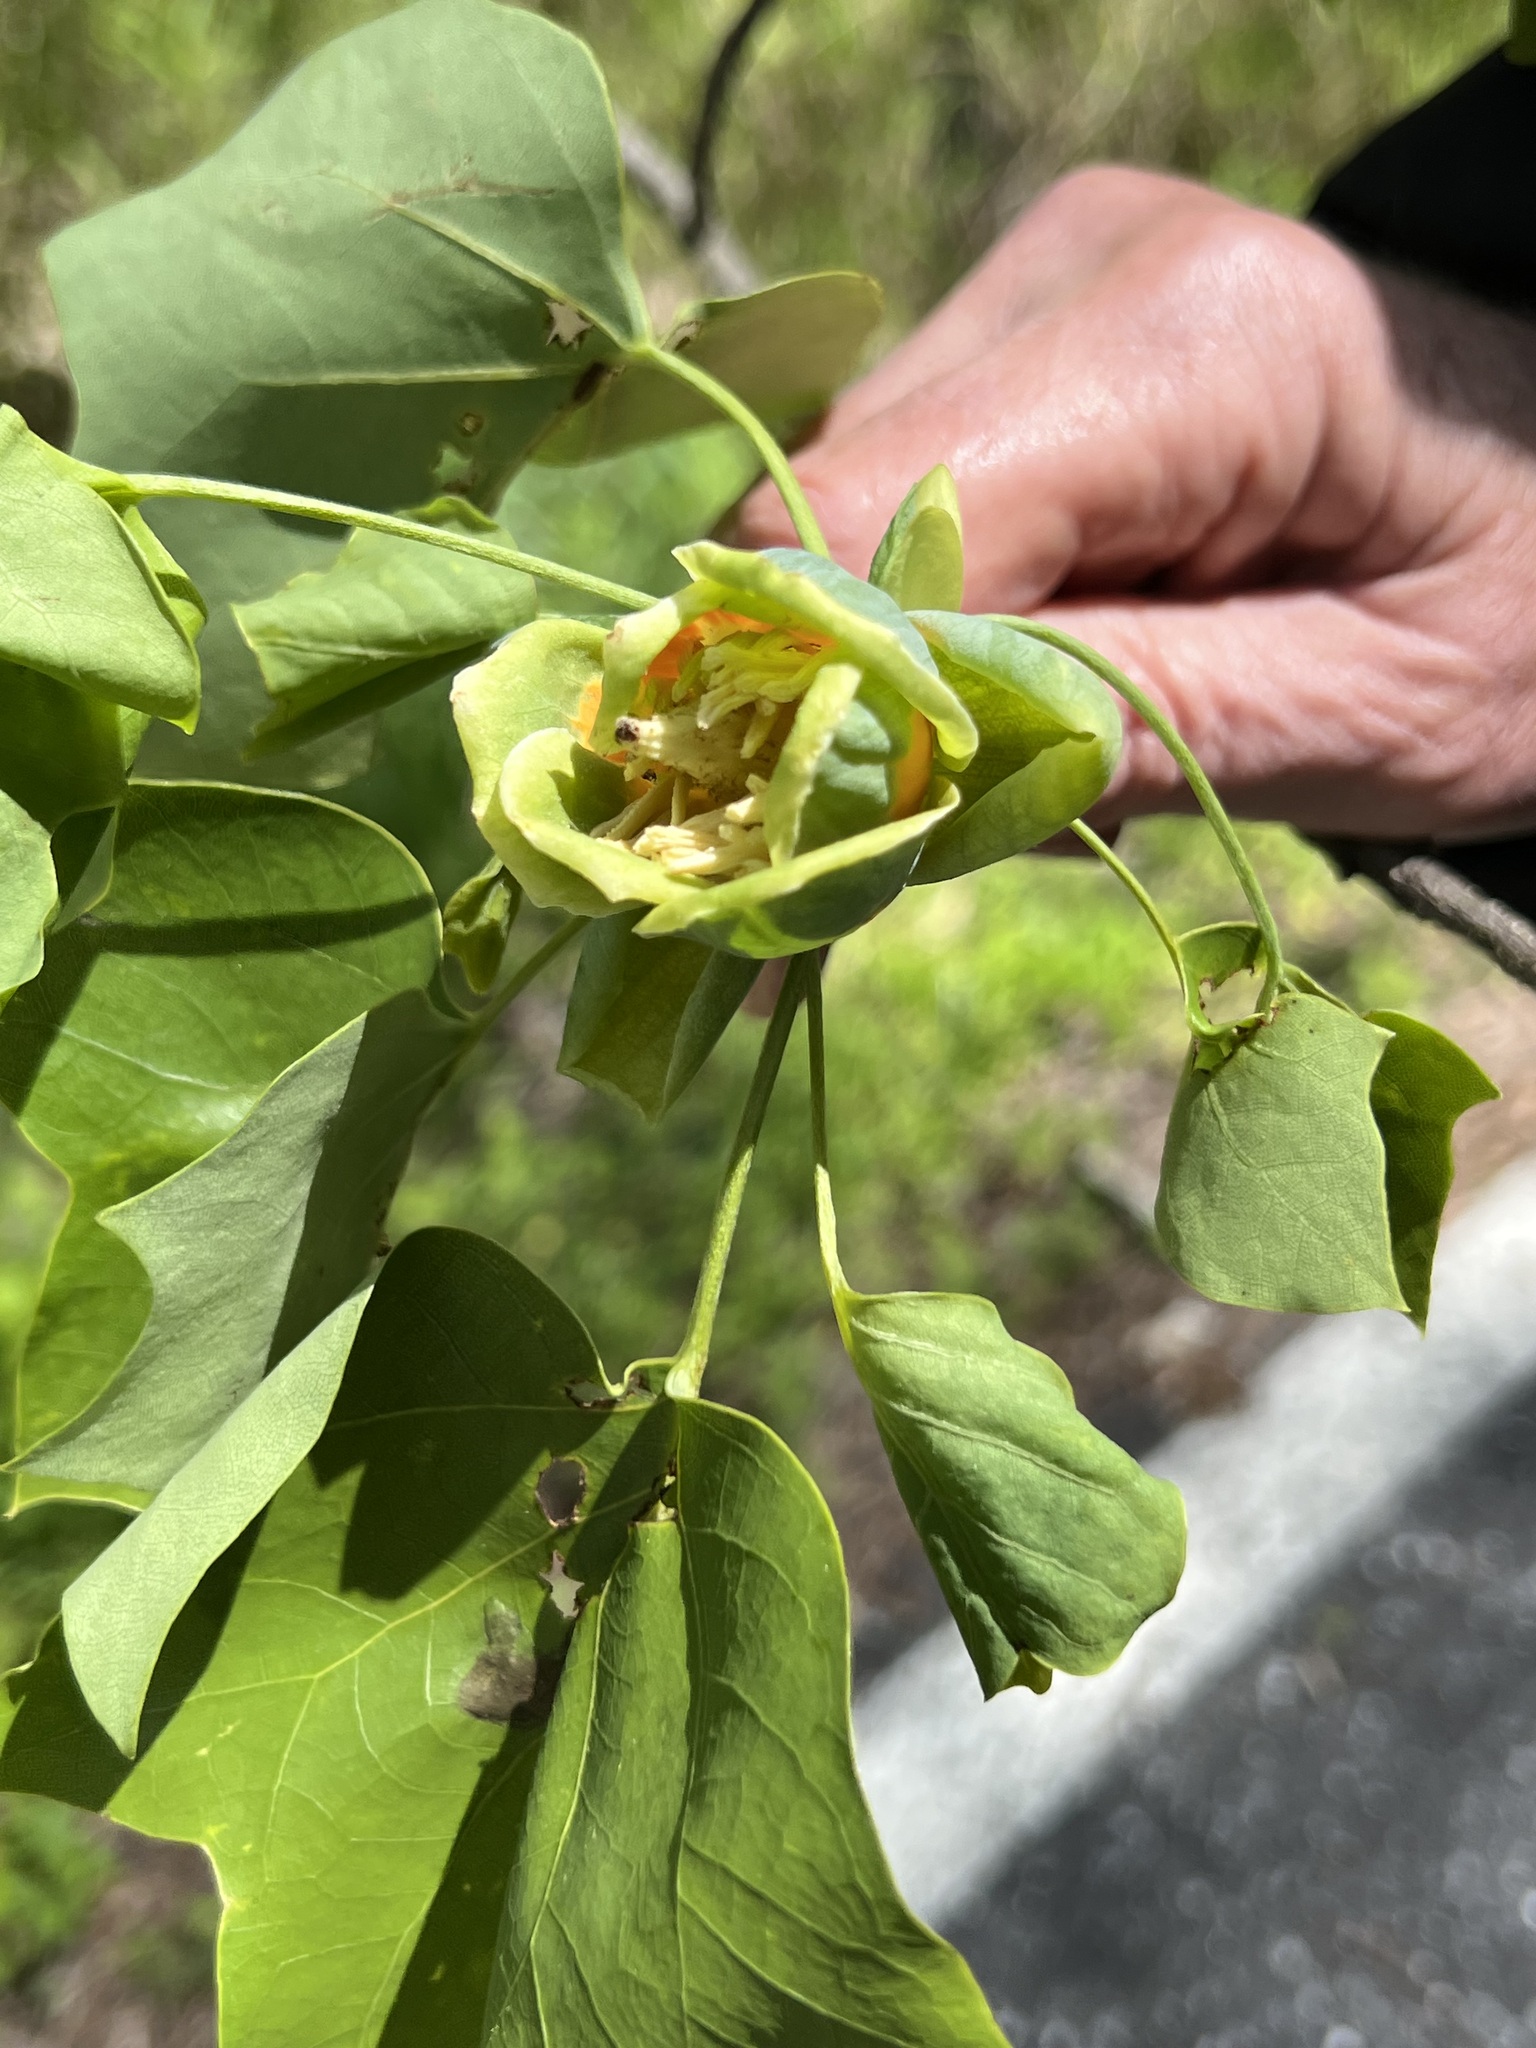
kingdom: Plantae
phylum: Tracheophyta
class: Magnoliopsida
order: Magnoliales
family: Magnoliaceae
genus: Liriodendron
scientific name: Liriodendron tulipifera
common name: Tulip tree
